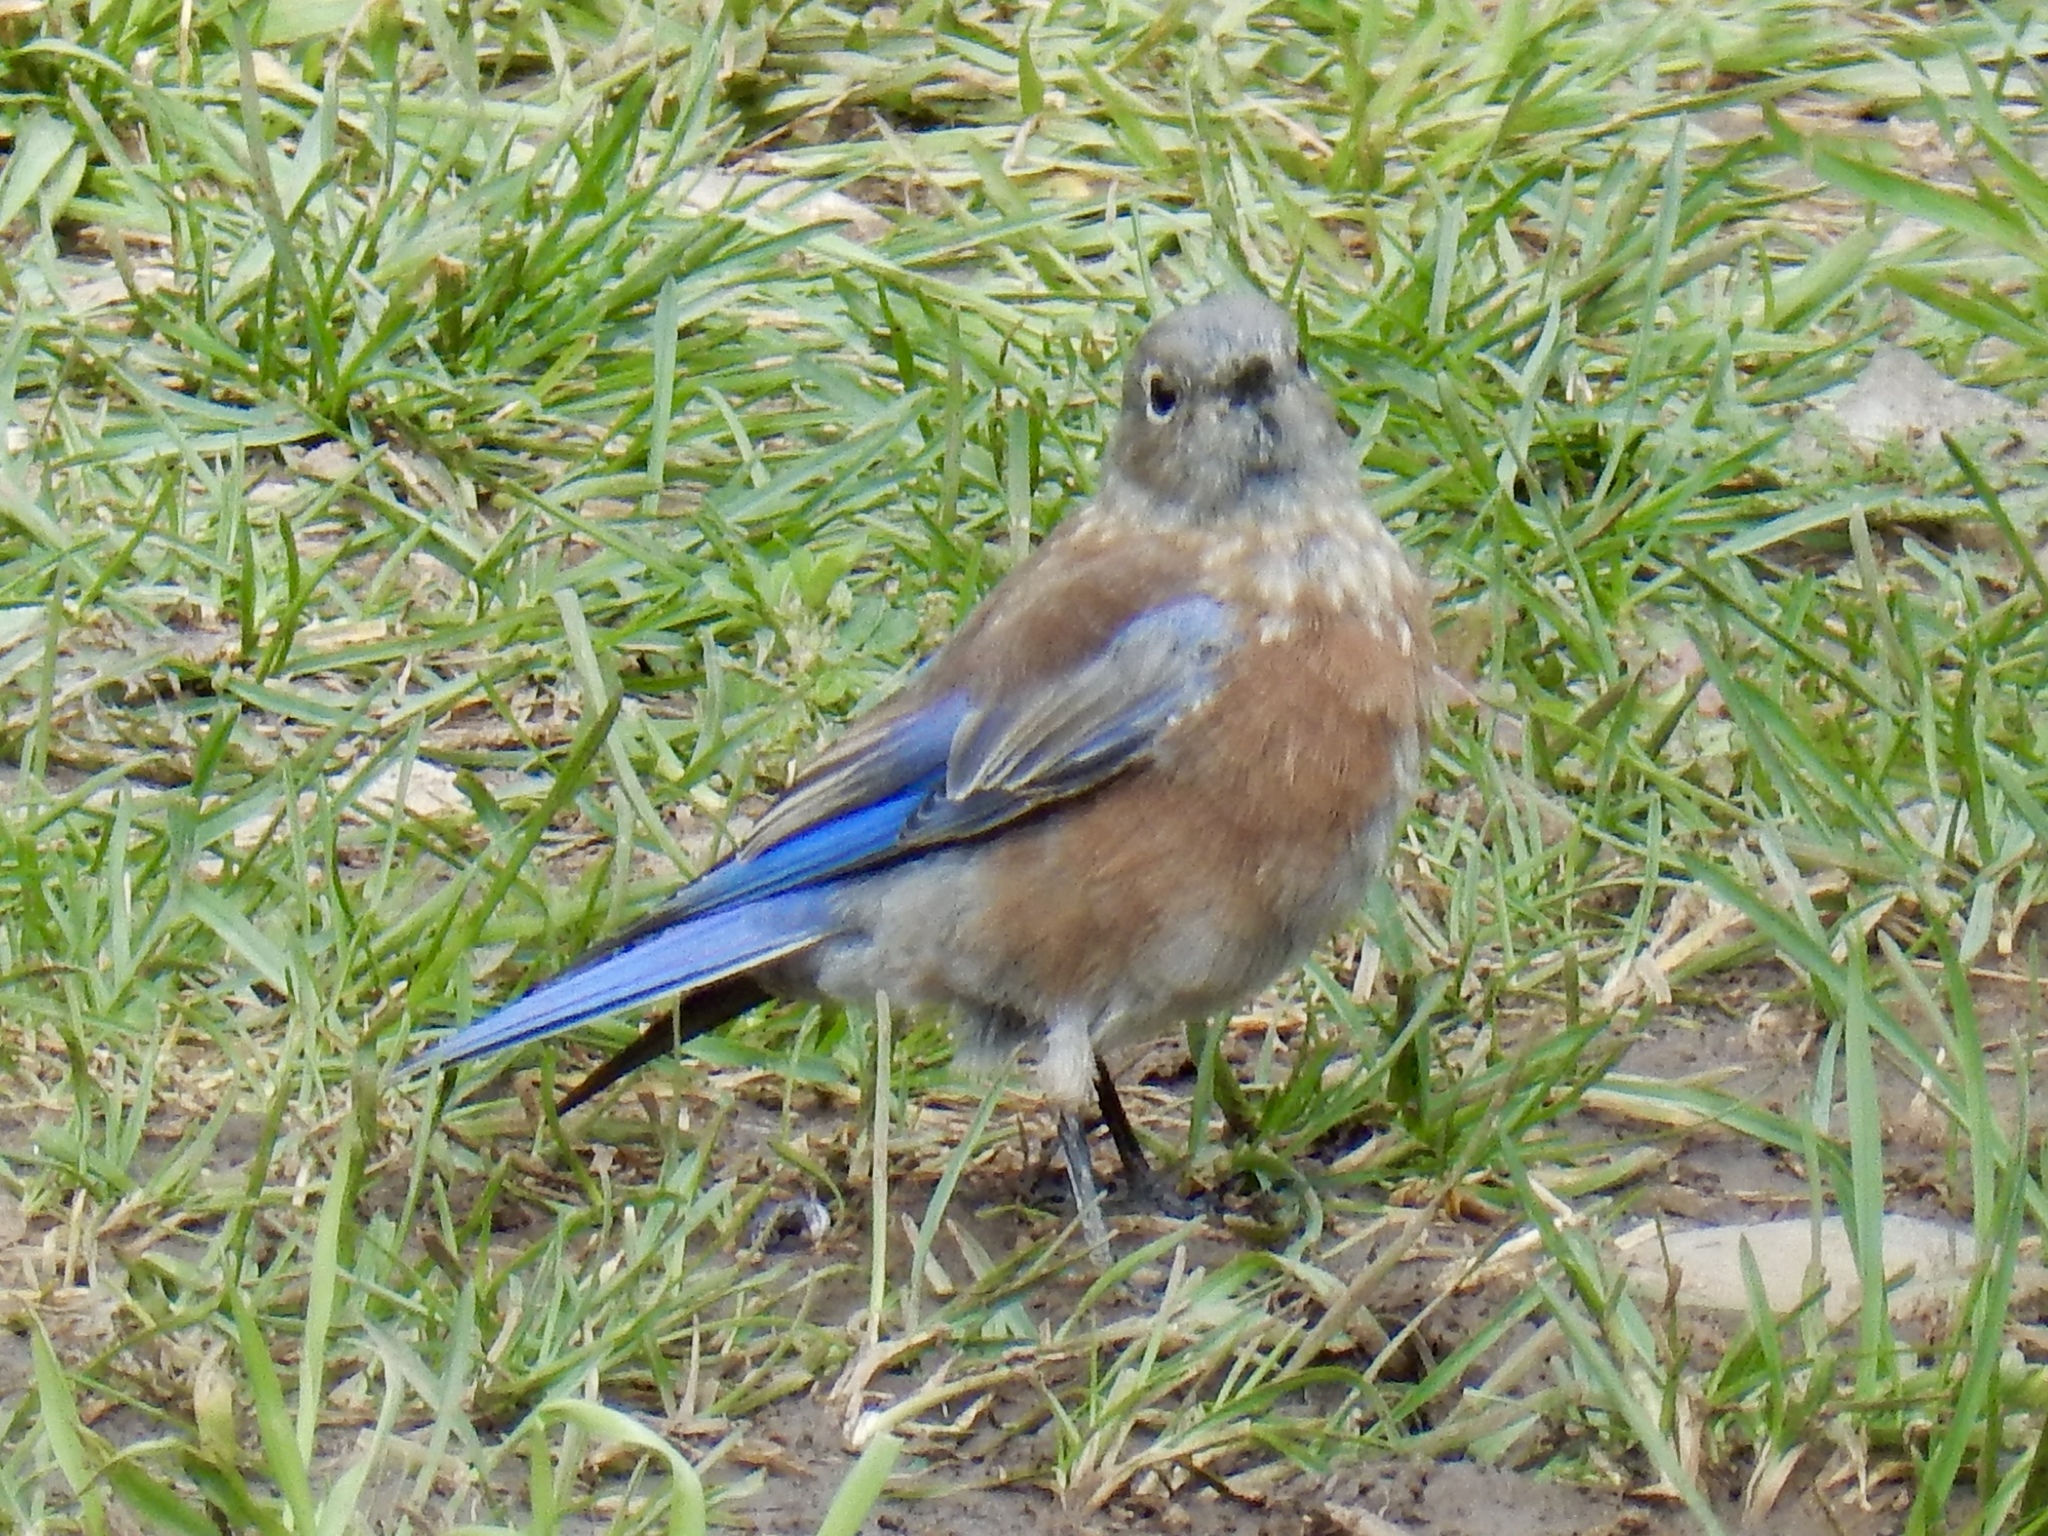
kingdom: Animalia
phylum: Chordata
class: Aves
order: Passeriformes
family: Turdidae
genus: Sialia
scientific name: Sialia mexicana
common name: Western bluebird
